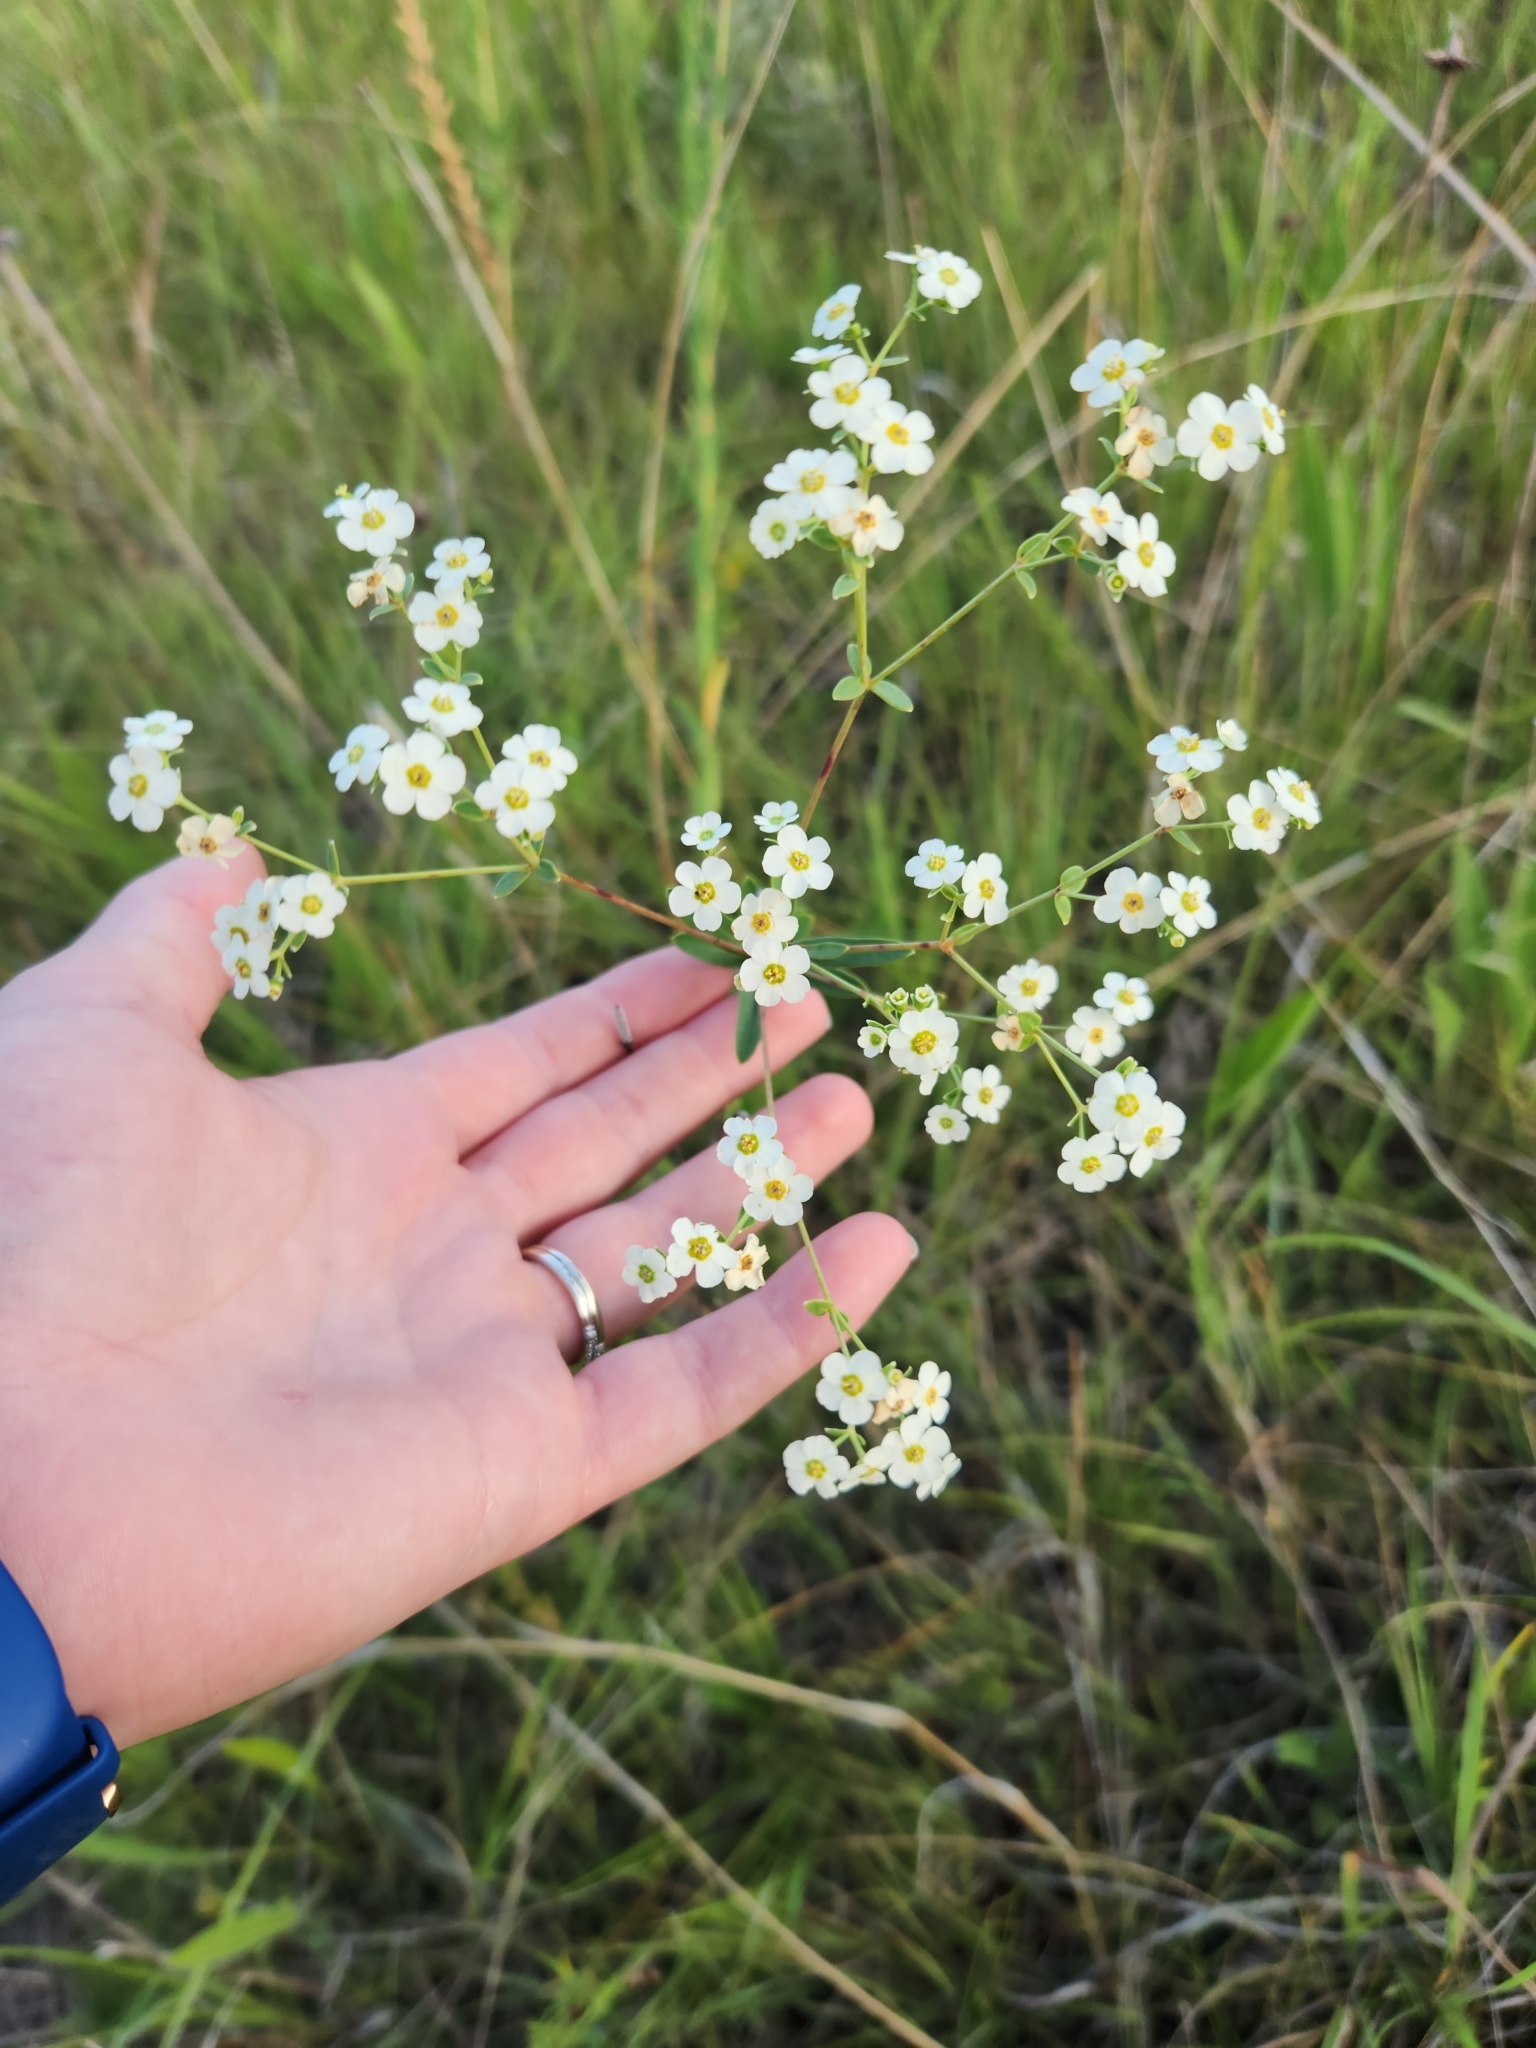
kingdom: Plantae
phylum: Tracheophyta
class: Magnoliopsida
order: Malpighiales
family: Euphorbiaceae
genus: Euphorbia
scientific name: Euphorbia corollata
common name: Flowering spurge
